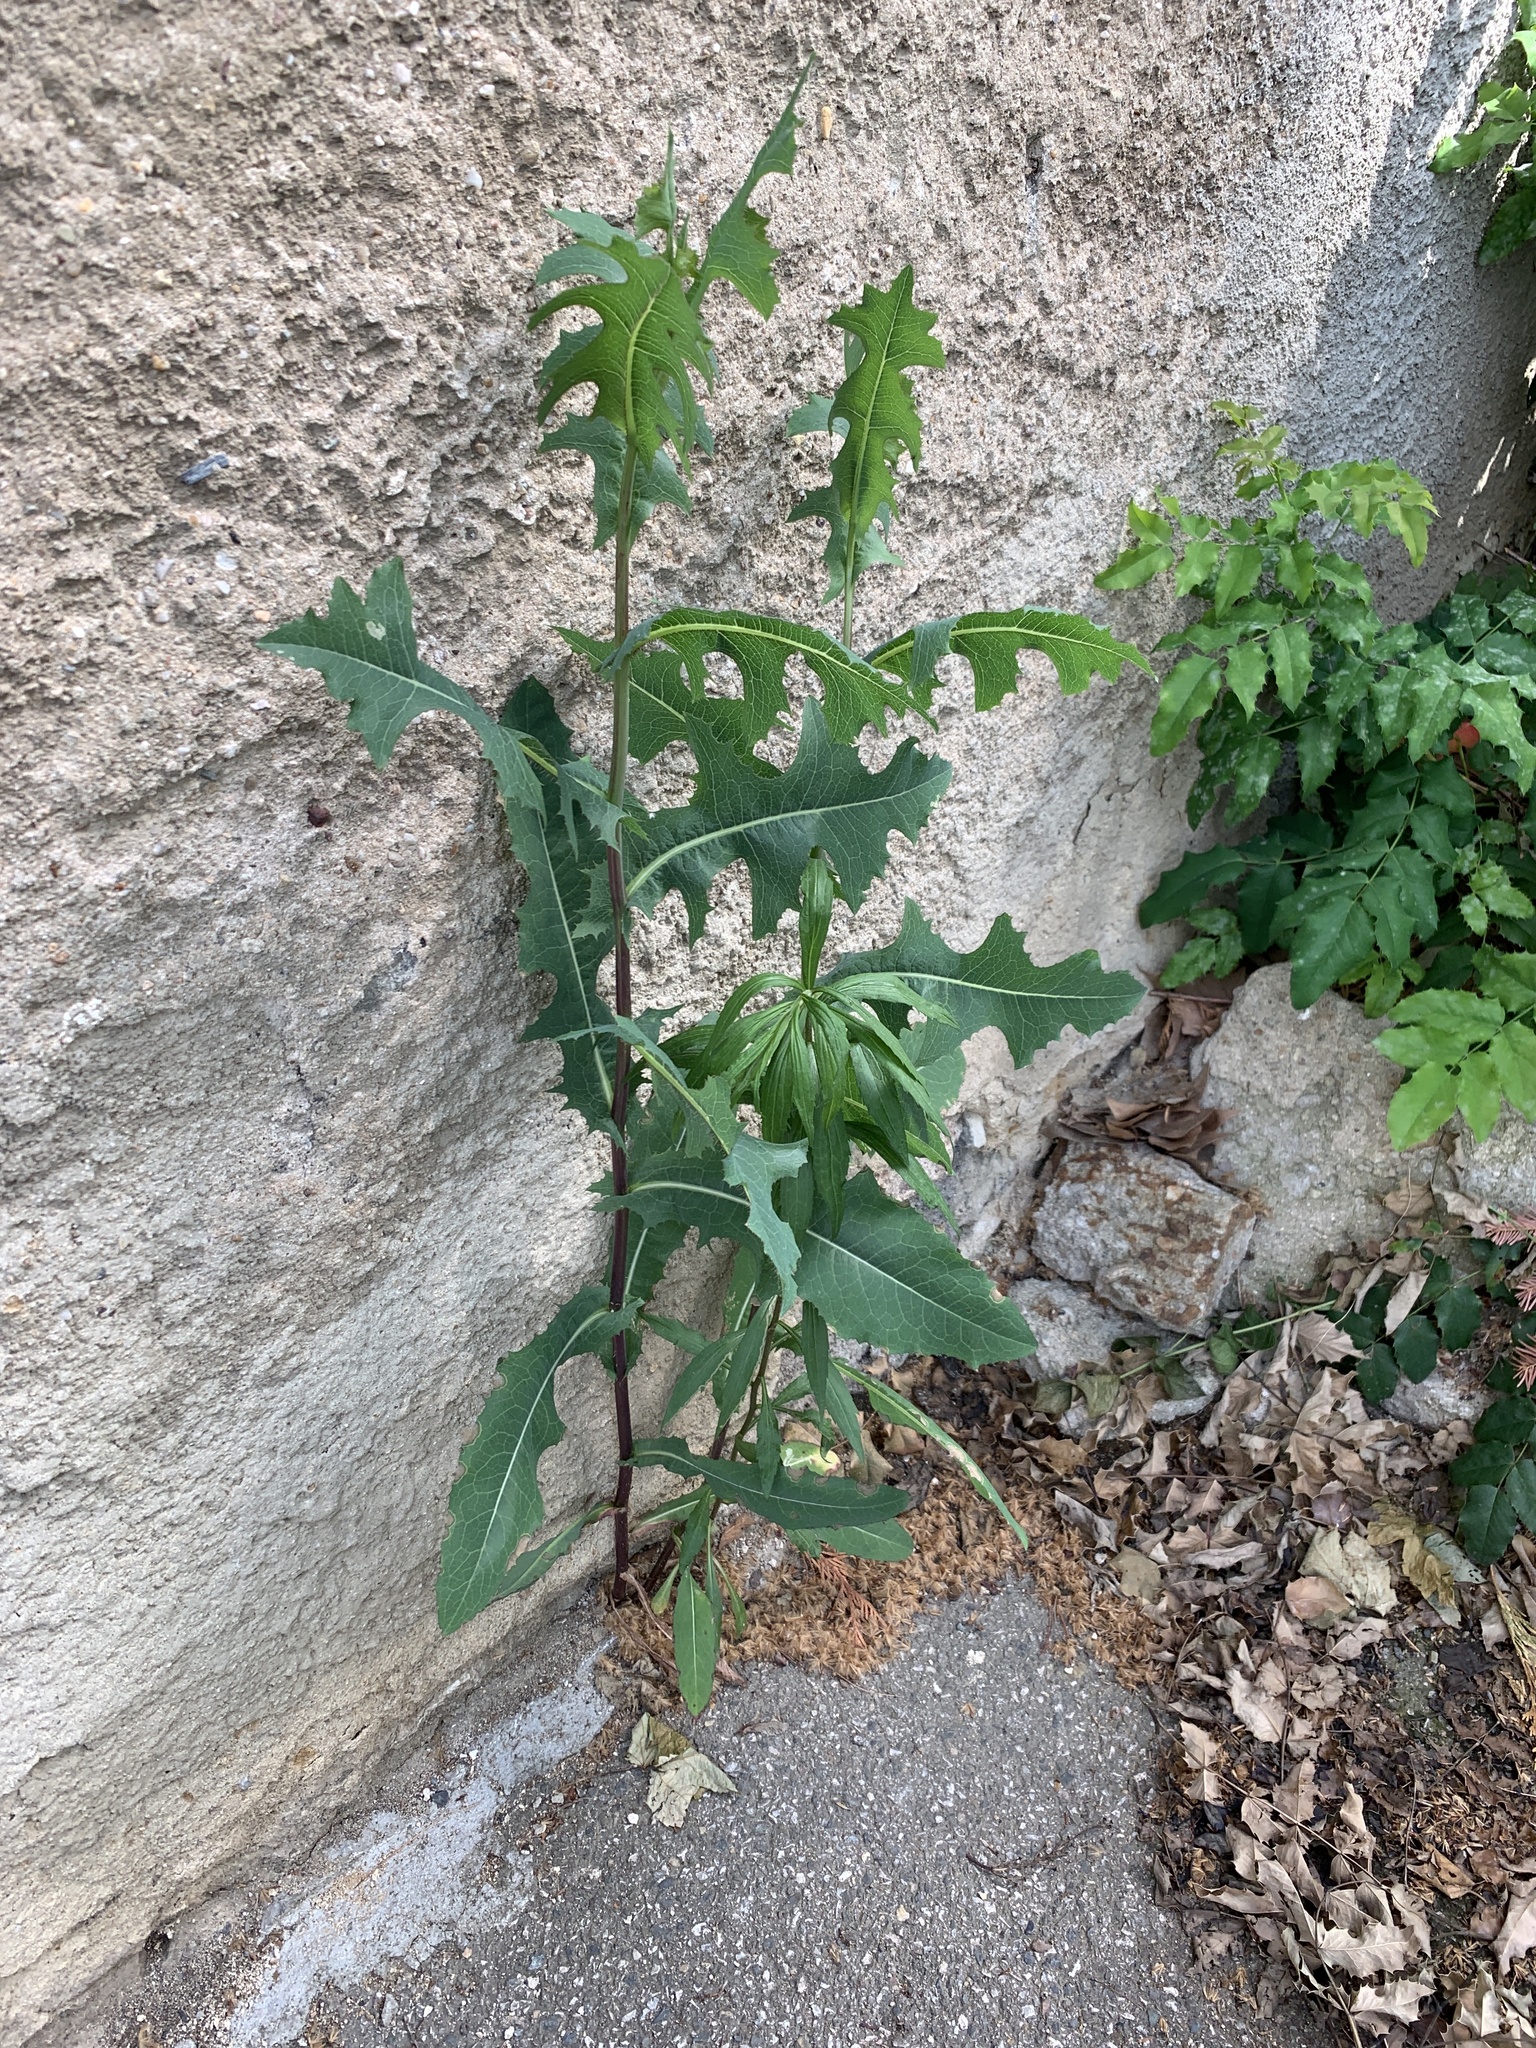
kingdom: Plantae
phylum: Tracheophyta
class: Magnoliopsida
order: Asterales
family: Asteraceae
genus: Lactuca
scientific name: Lactuca serriola
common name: Prickly lettuce
